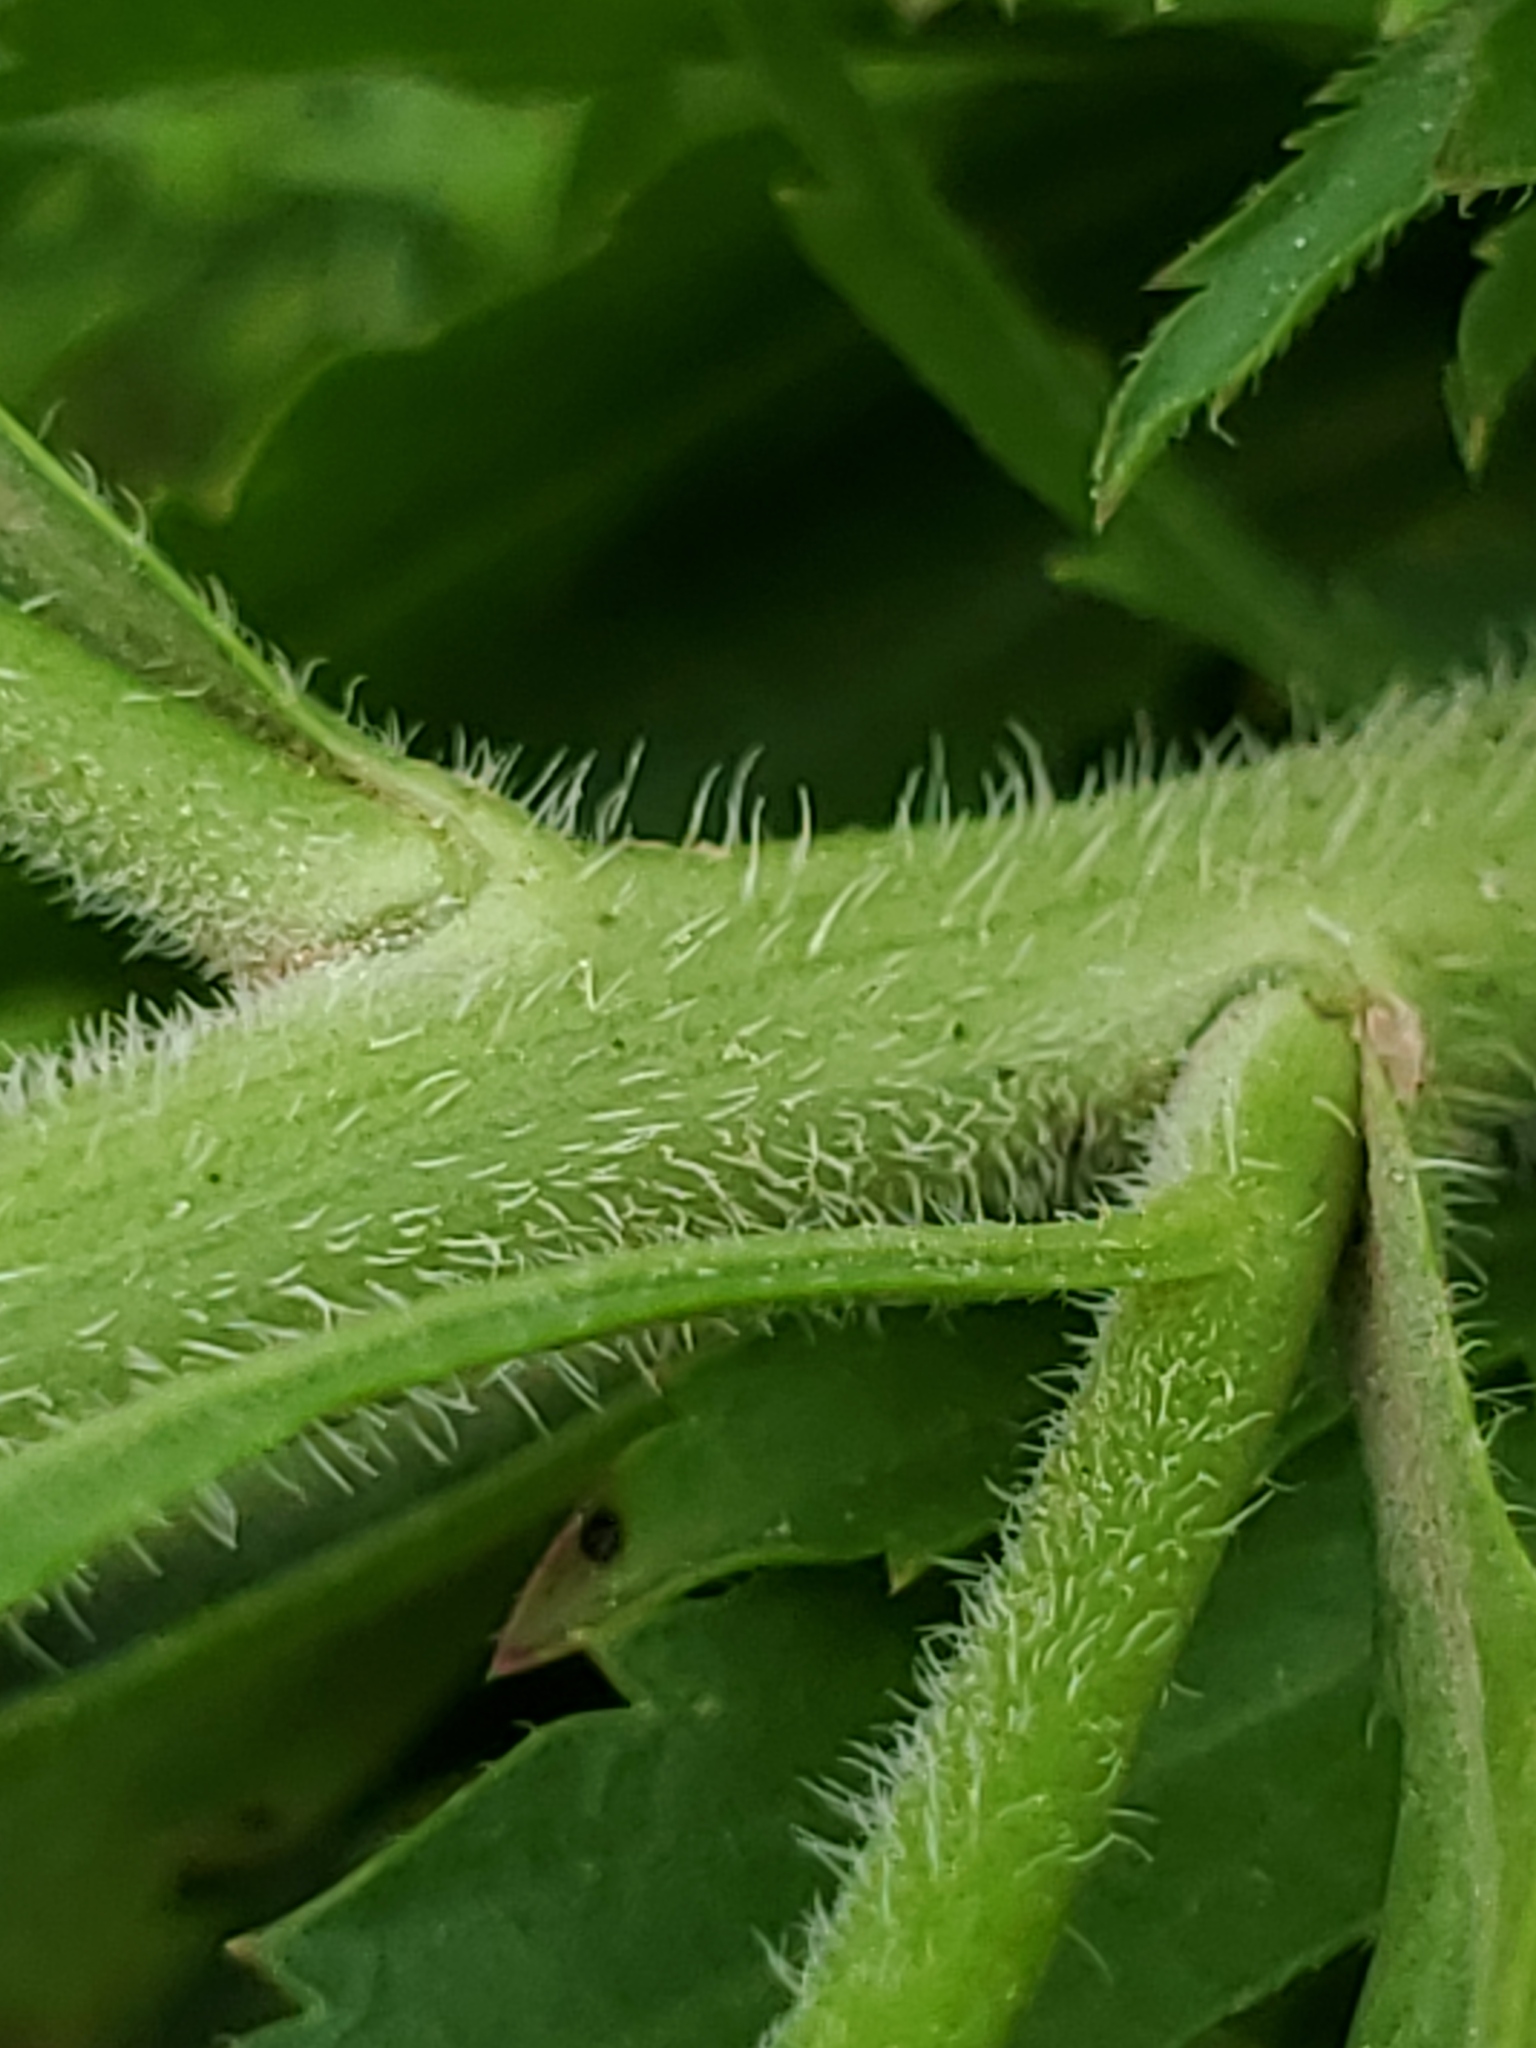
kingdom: Plantae
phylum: Tracheophyta
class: Magnoliopsida
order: Brassicales
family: Brassicaceae
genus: Lepidium
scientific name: Lepidium densiflorum
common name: Miner's pepperwort
